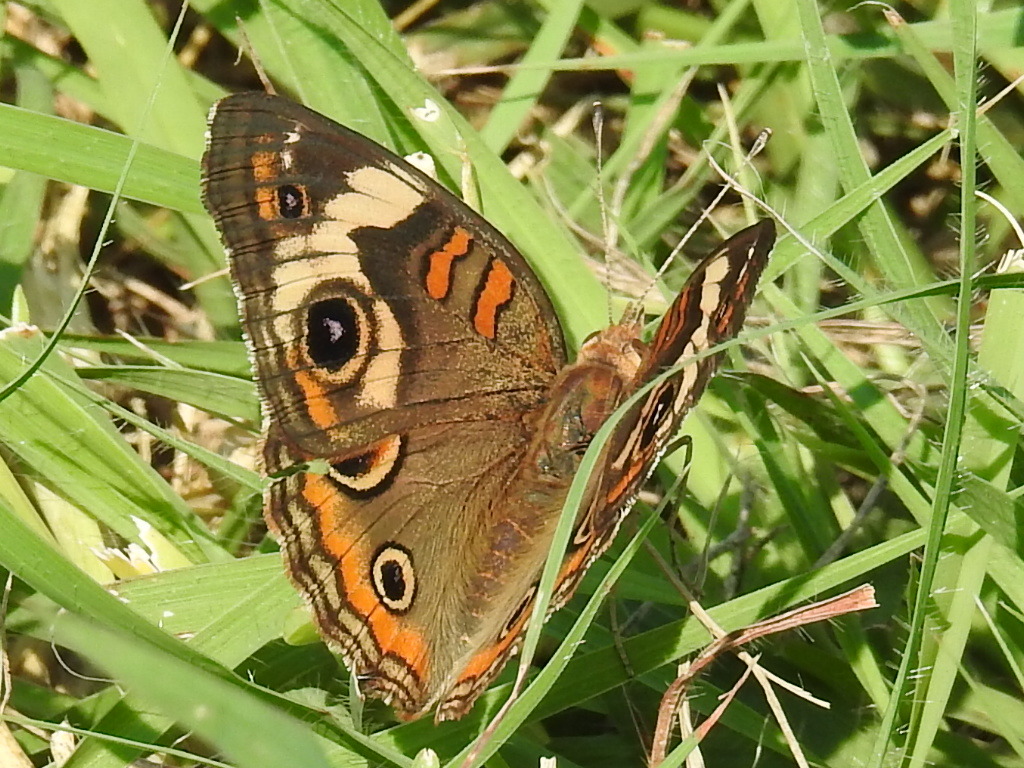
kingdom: Animalia
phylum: Arthropoda
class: Insecta
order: Lepidoptera
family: Nymphalidae
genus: Junonia
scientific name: Junonia coenia
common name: Common buckeye
